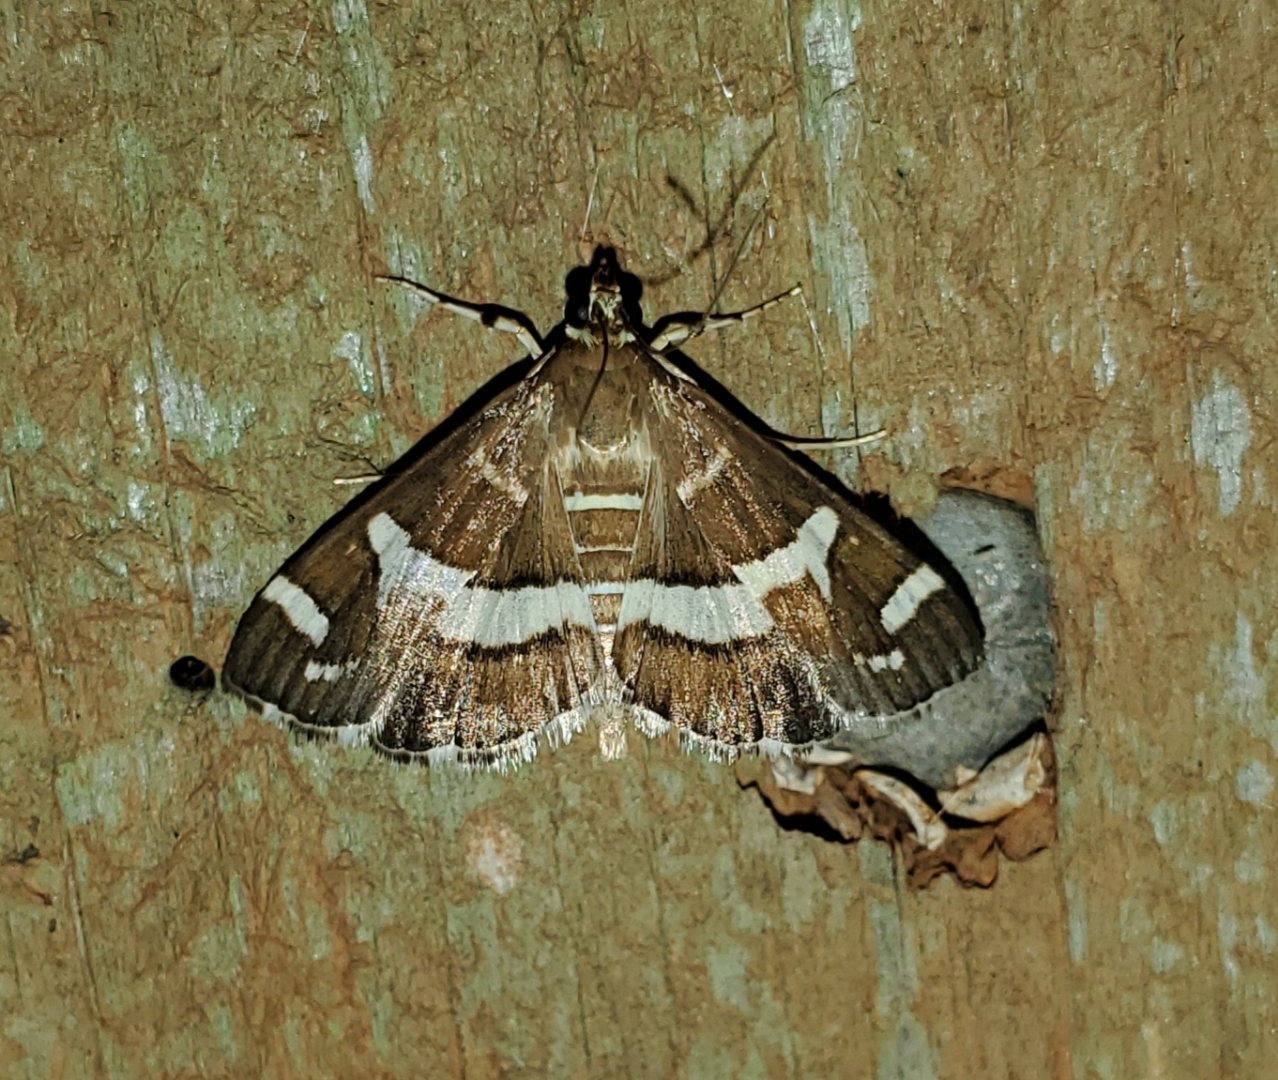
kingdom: Animalia
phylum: Arthropoda
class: Insecta
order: Lepidoptera
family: Crambidae
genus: Spoladea
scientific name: Spoladea recurvalis
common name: Beet webworm moth
